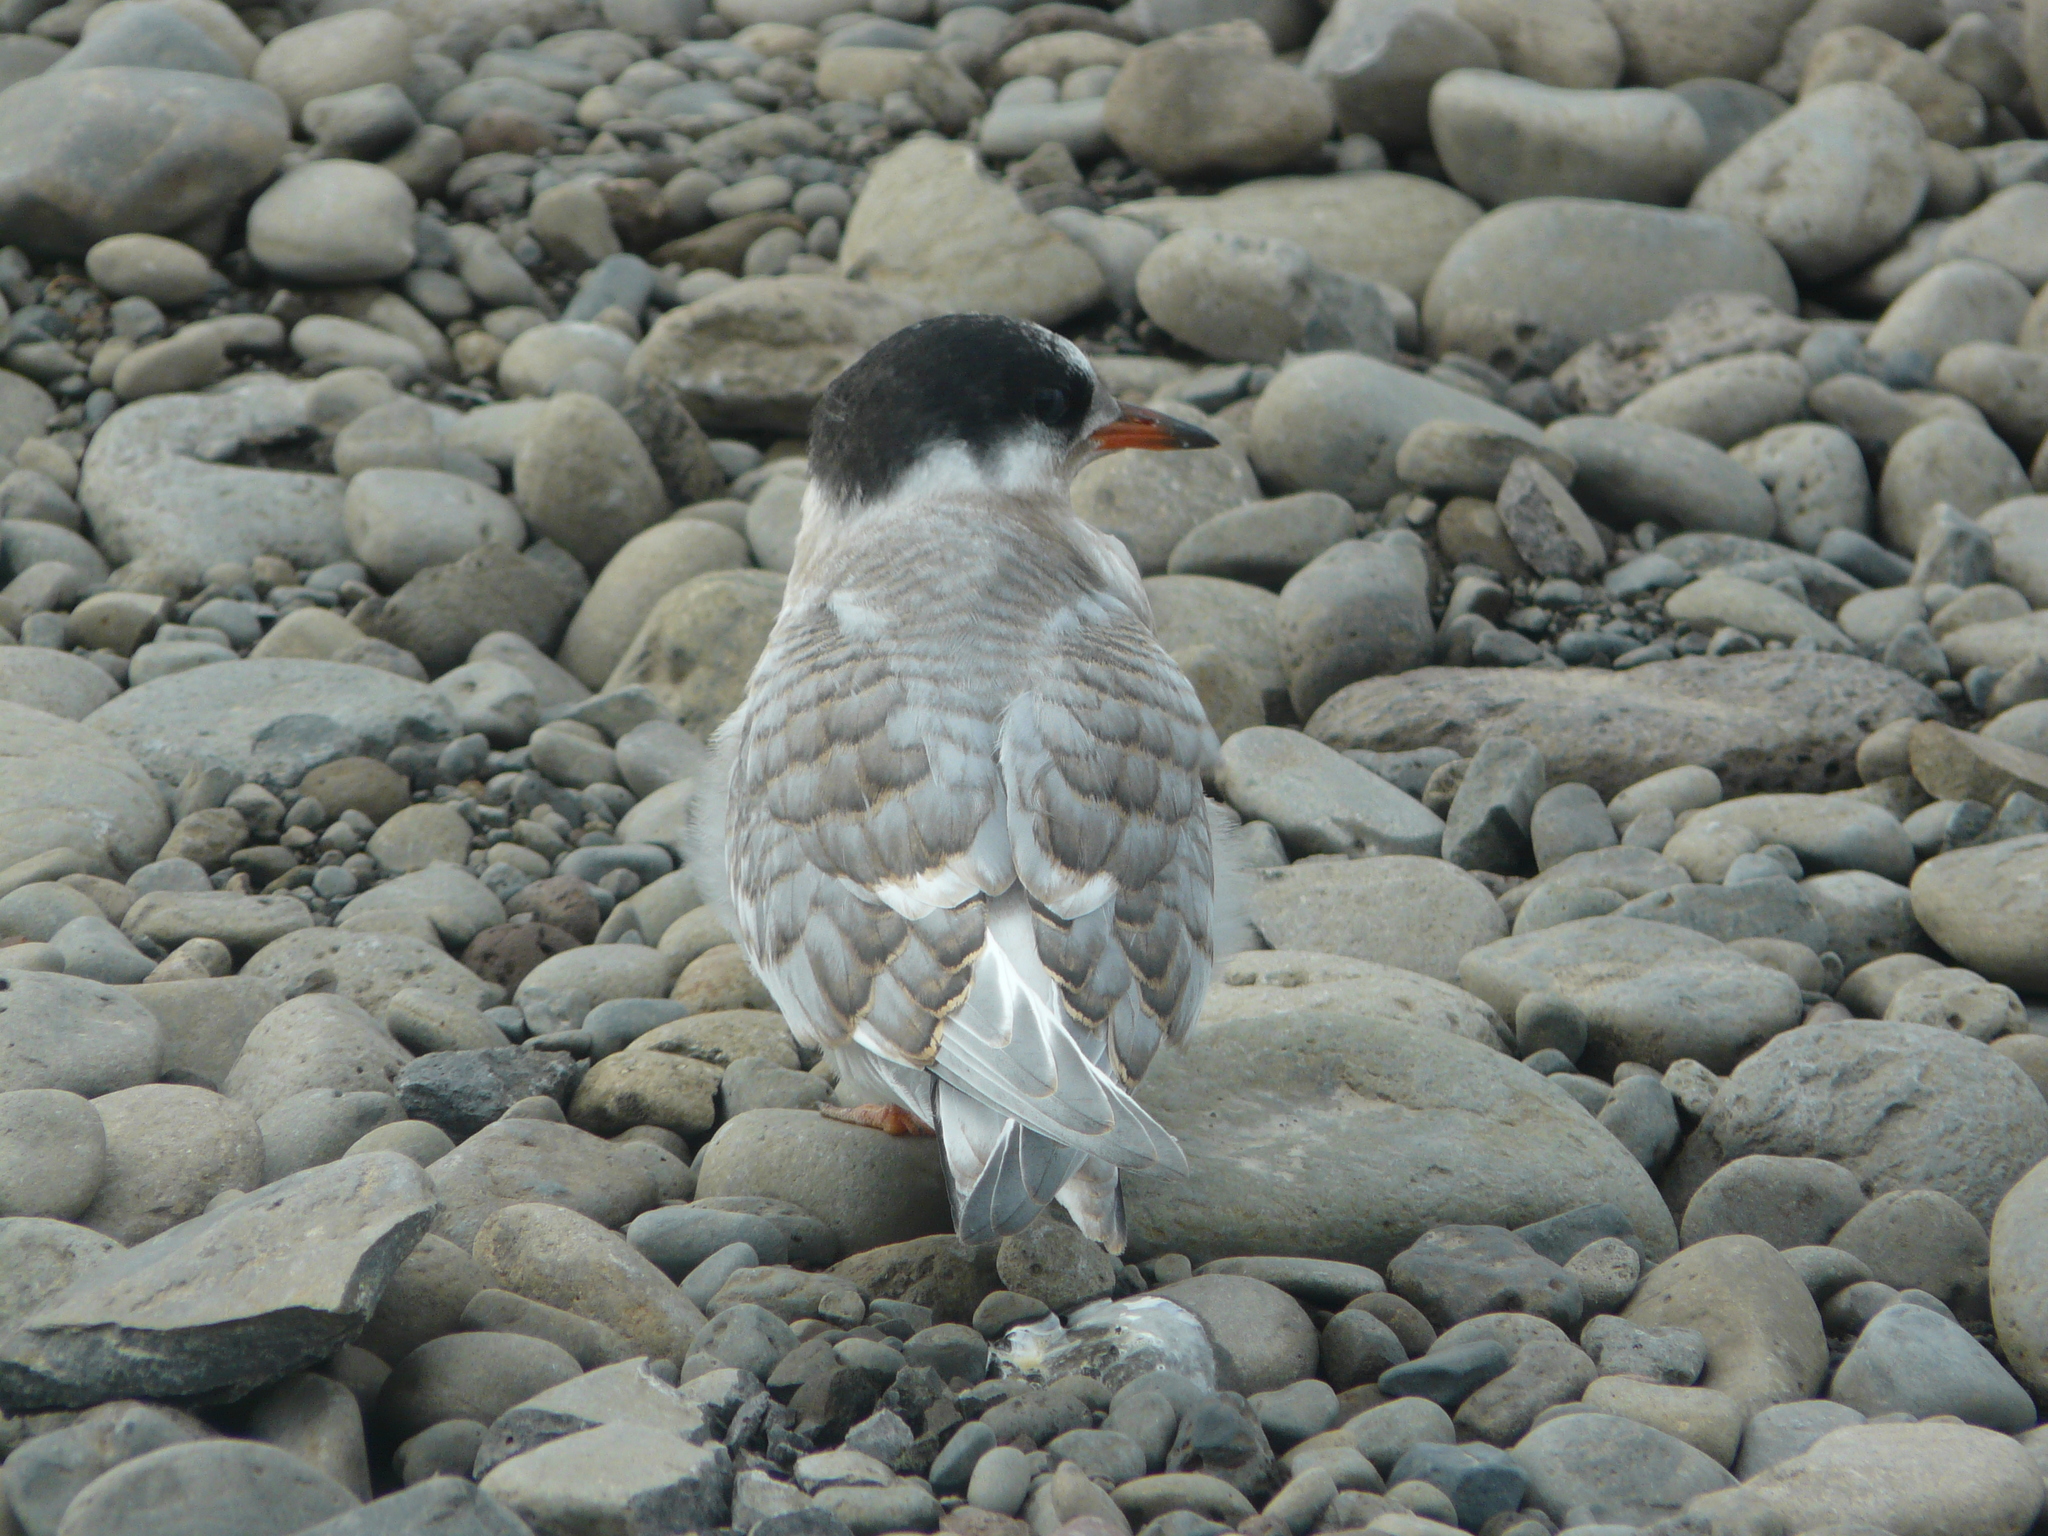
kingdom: Animalia
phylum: Chordata
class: Aves
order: Charadriiformes
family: Laridae
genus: Sterna
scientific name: Sterna paradisaea
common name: Arctic tern
